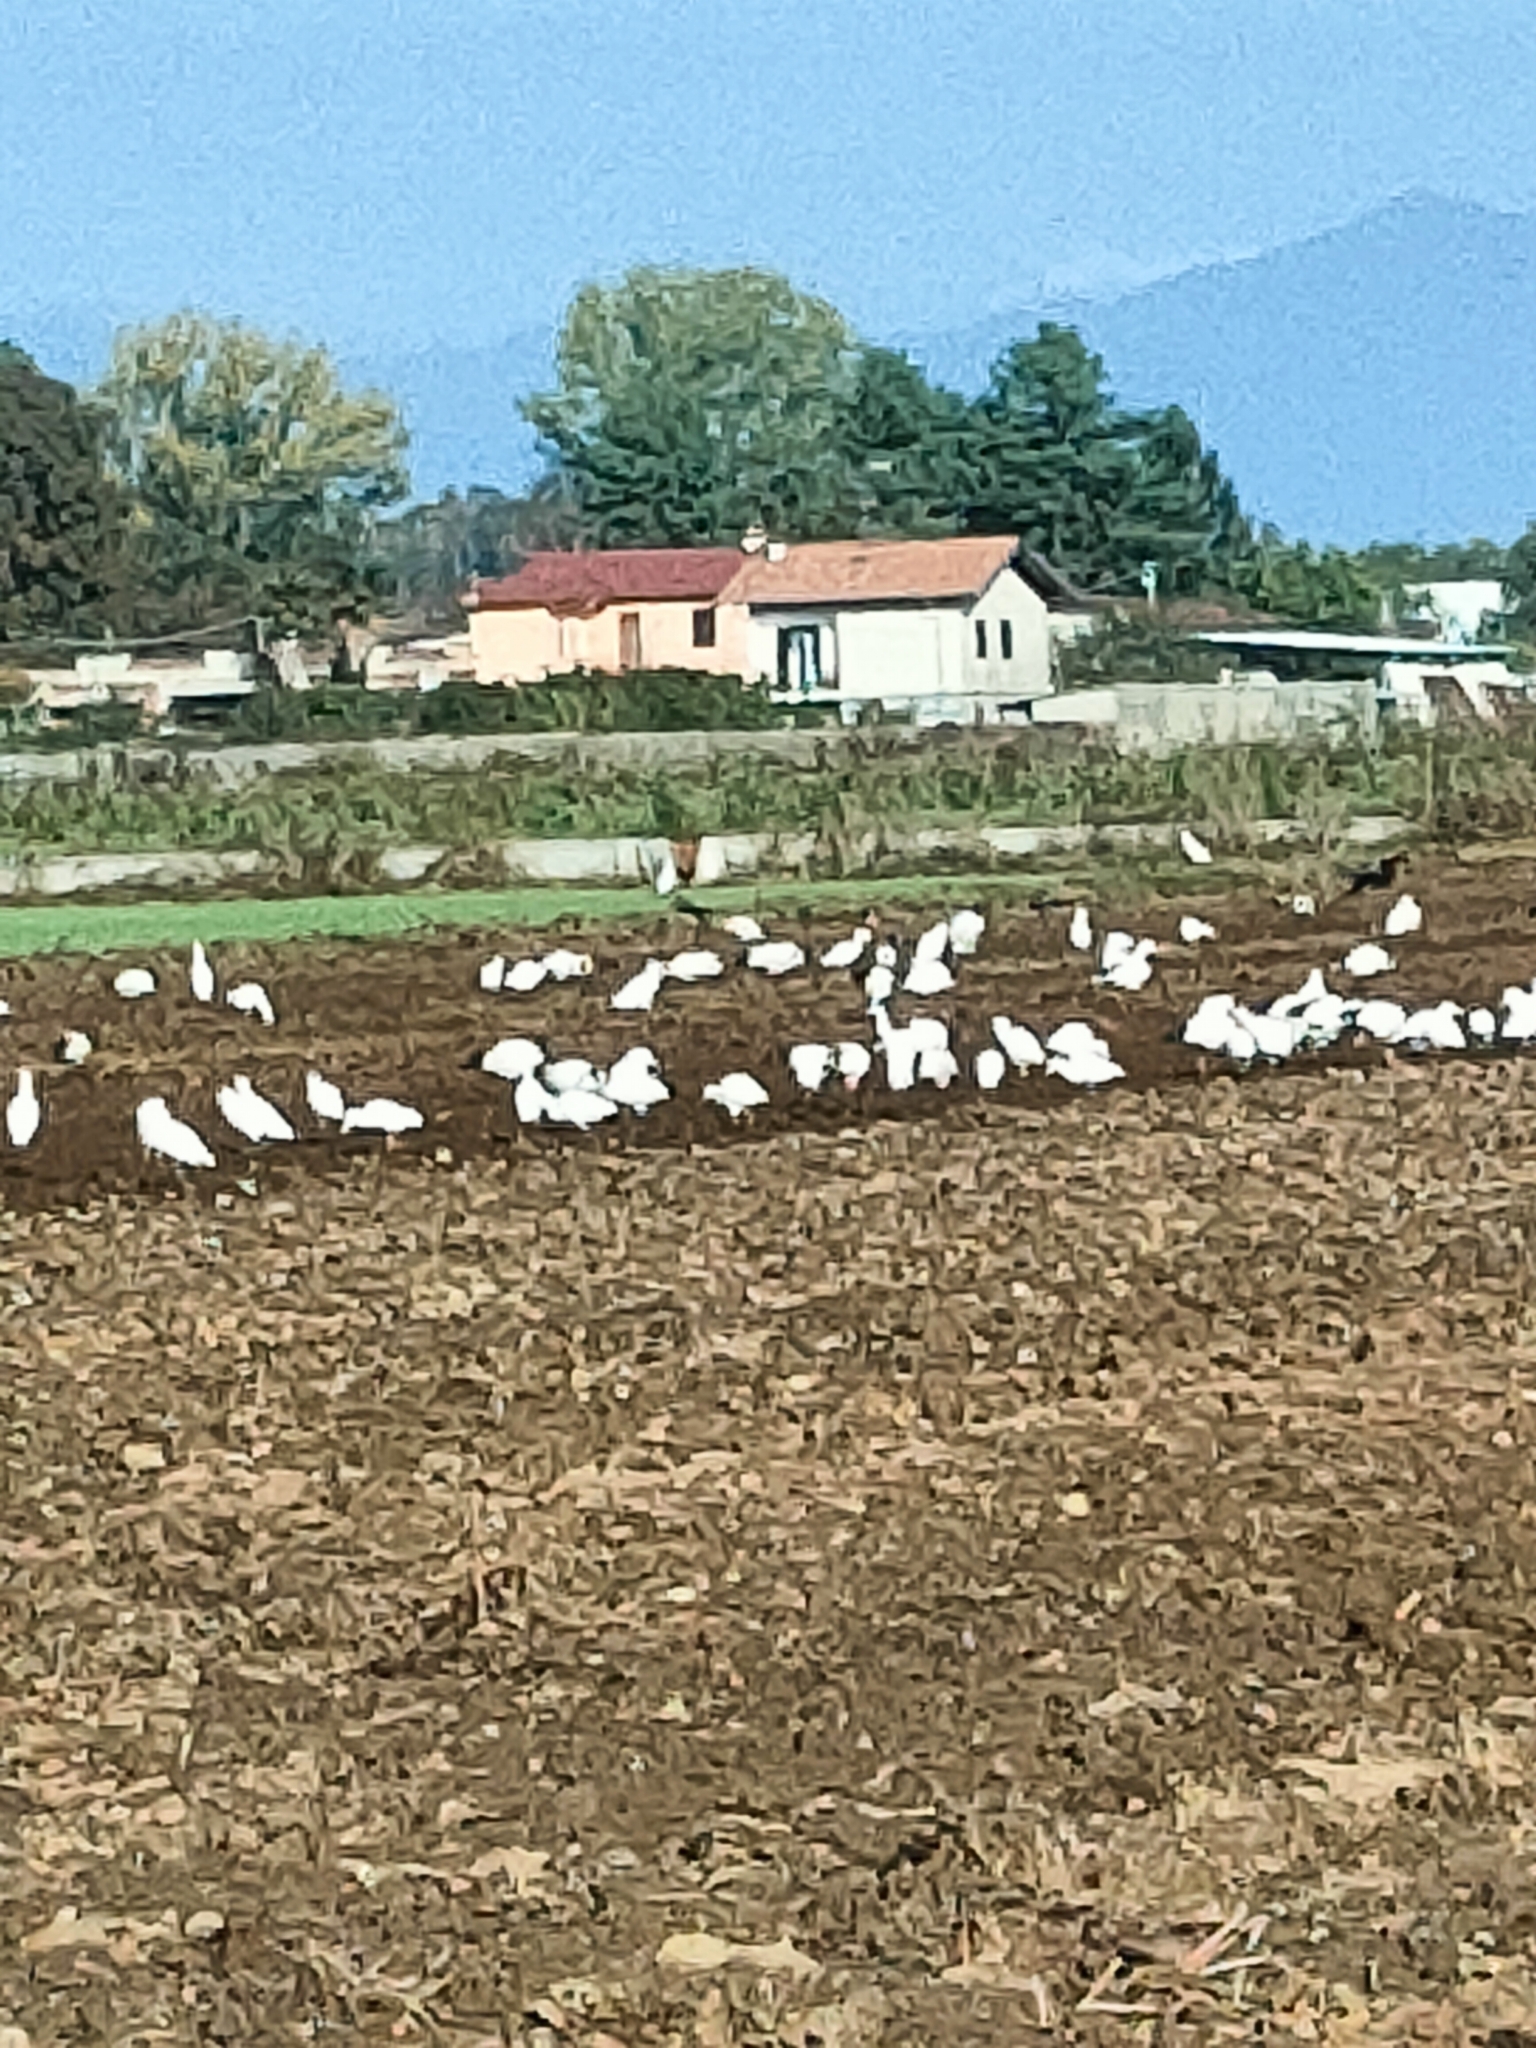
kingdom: Animalia
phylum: Chordata
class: Aves
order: Pelecaniformes
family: Ardeidae
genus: Bubulcus
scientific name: Bubulcus ibis
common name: Cattle egret
